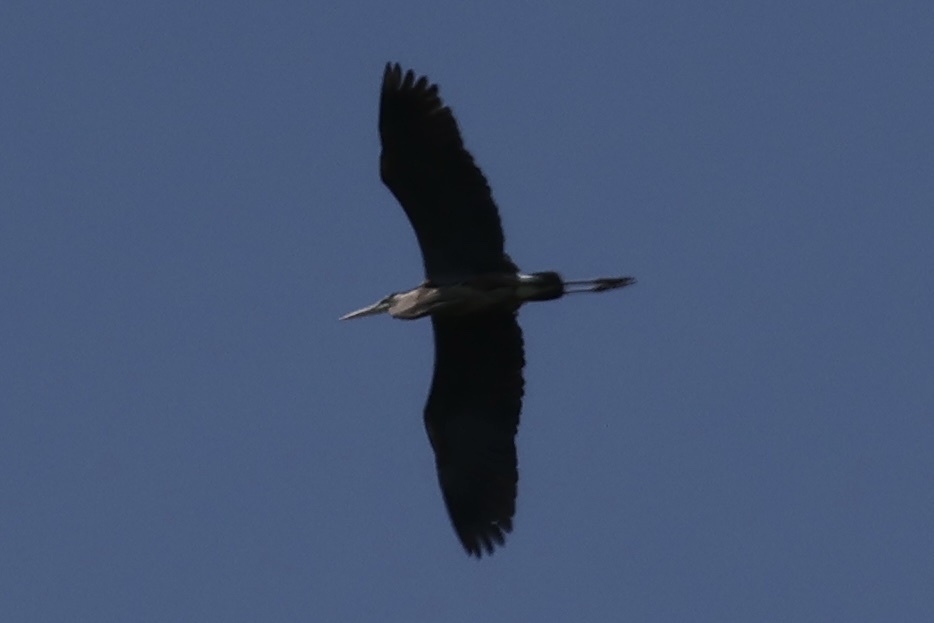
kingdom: Animalia
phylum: Chordata
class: Aves
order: Pelecaniformes
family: Ardeidae
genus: Ardea
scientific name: Ardea herodias
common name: Great blue heron
